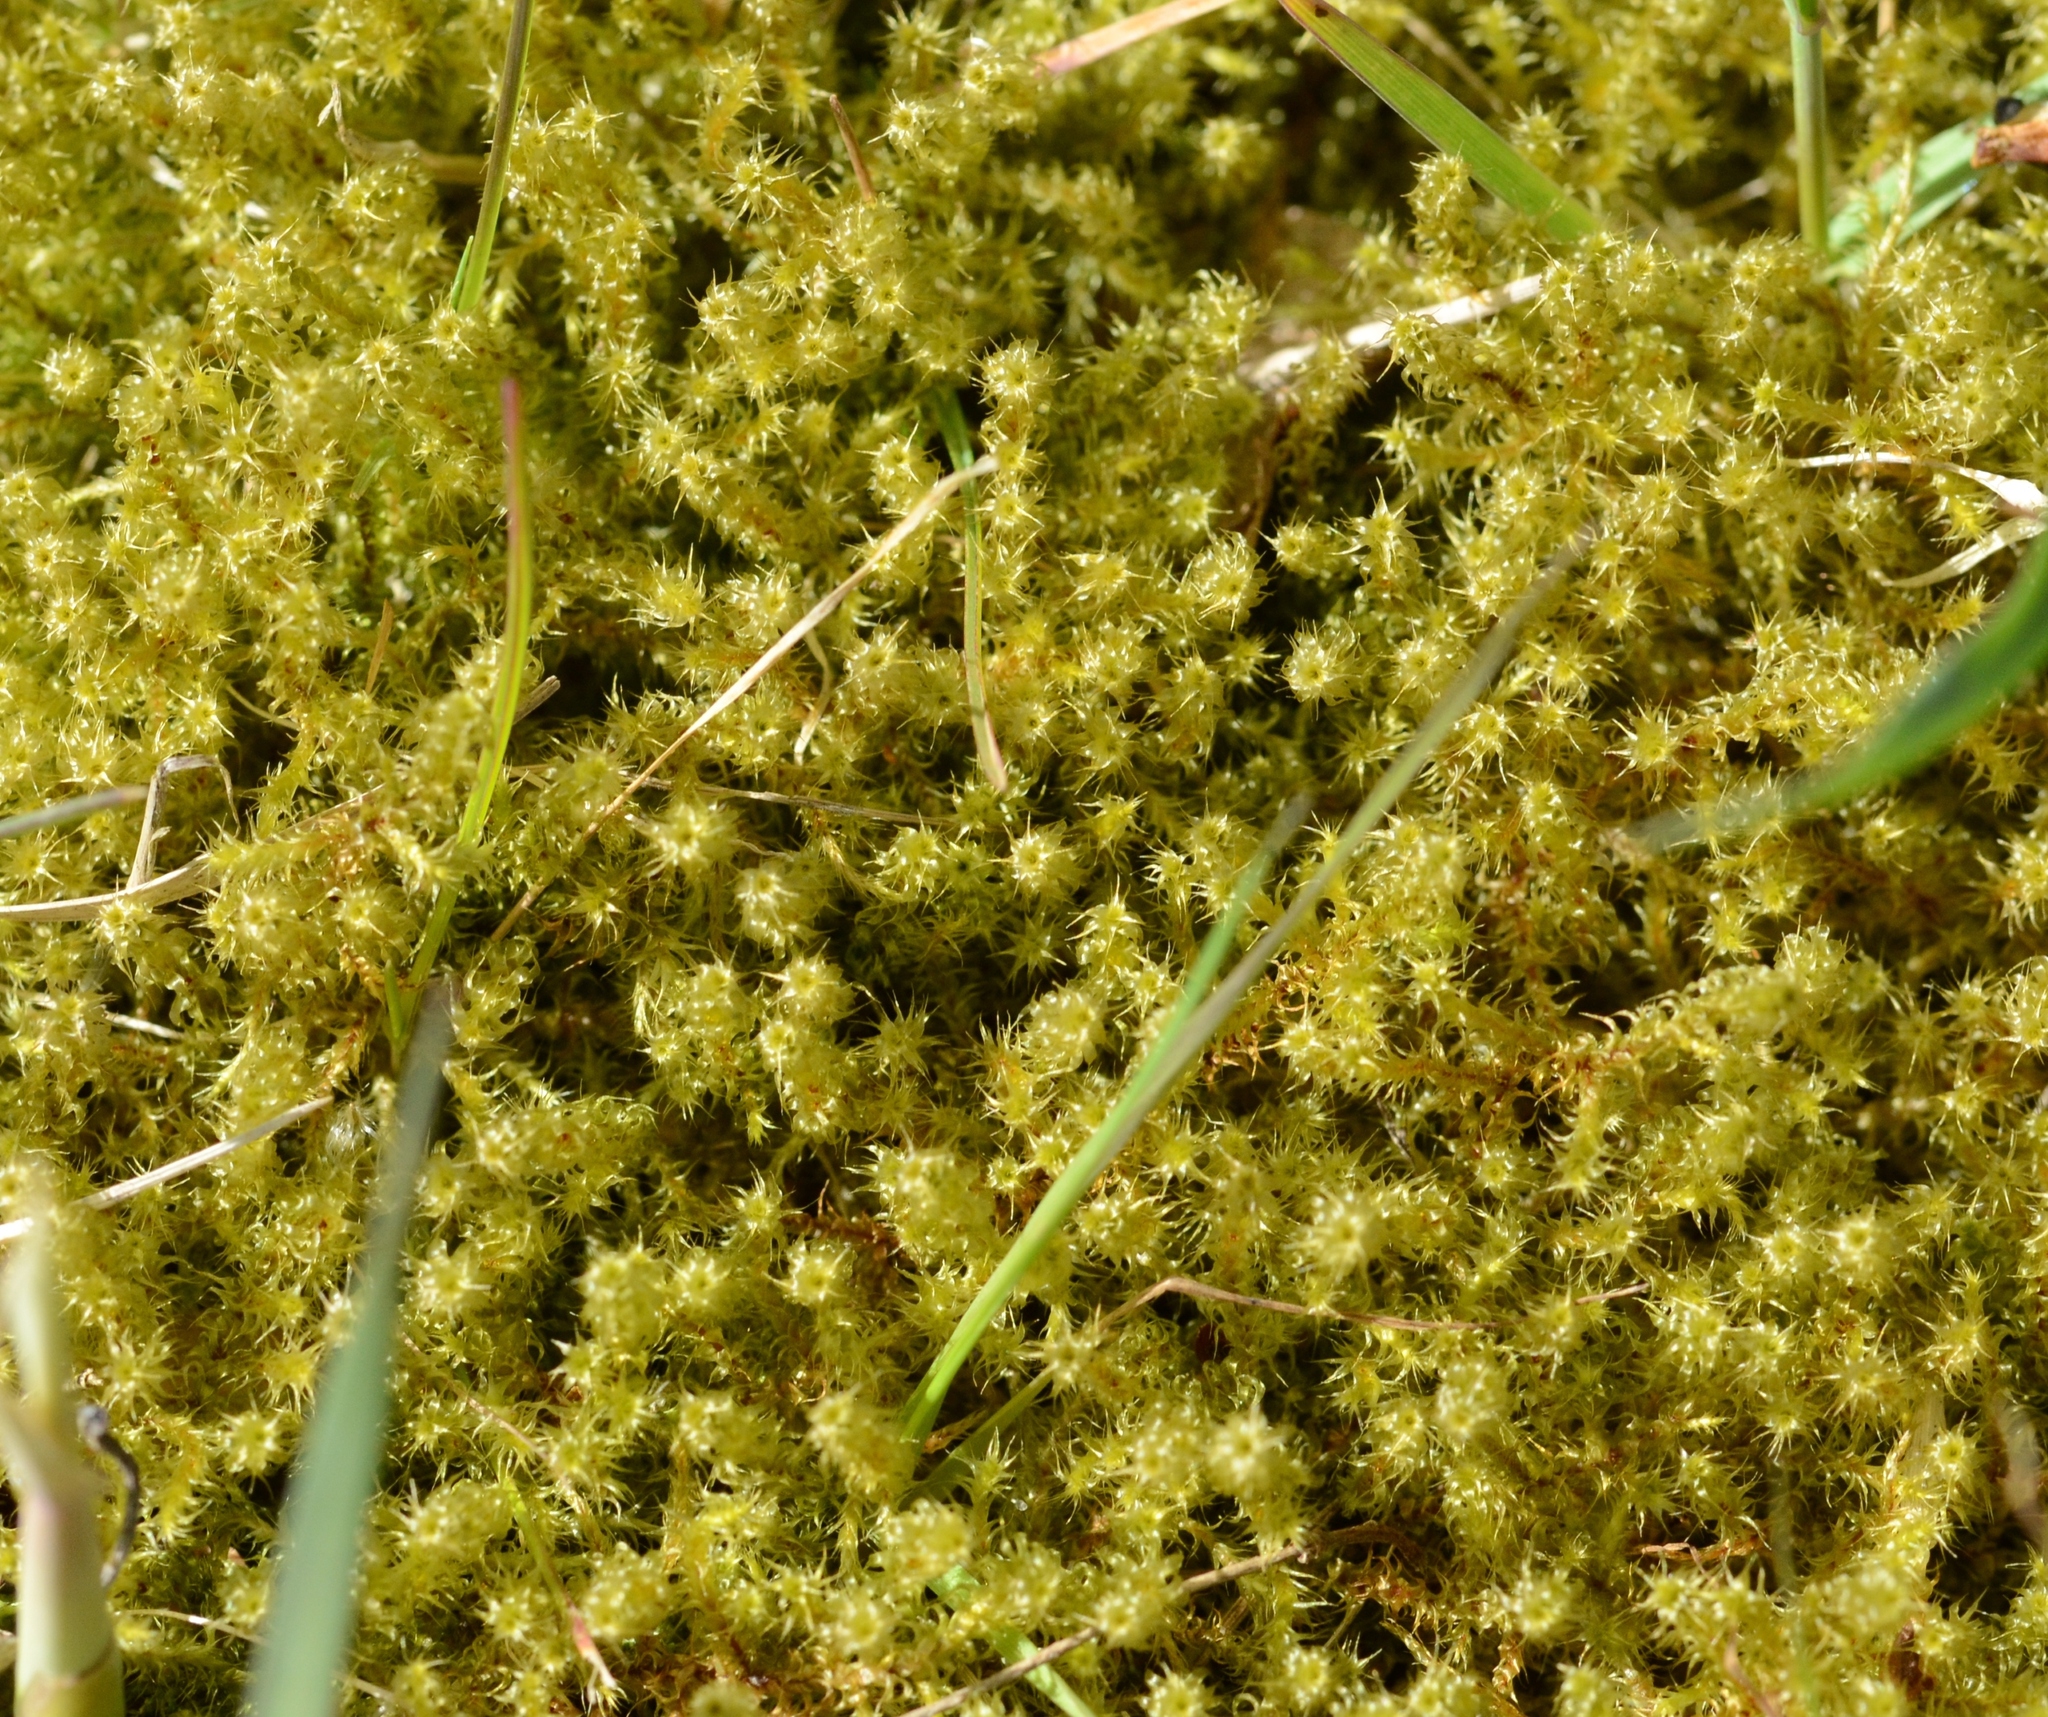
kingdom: Plantae
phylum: Bryophyta
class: Bryopsida
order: Hypnales
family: Hylocomiaceae
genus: Rhytidiadelphus
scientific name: Rhytidiadelphus squarrosus
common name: Springy turf-moss
